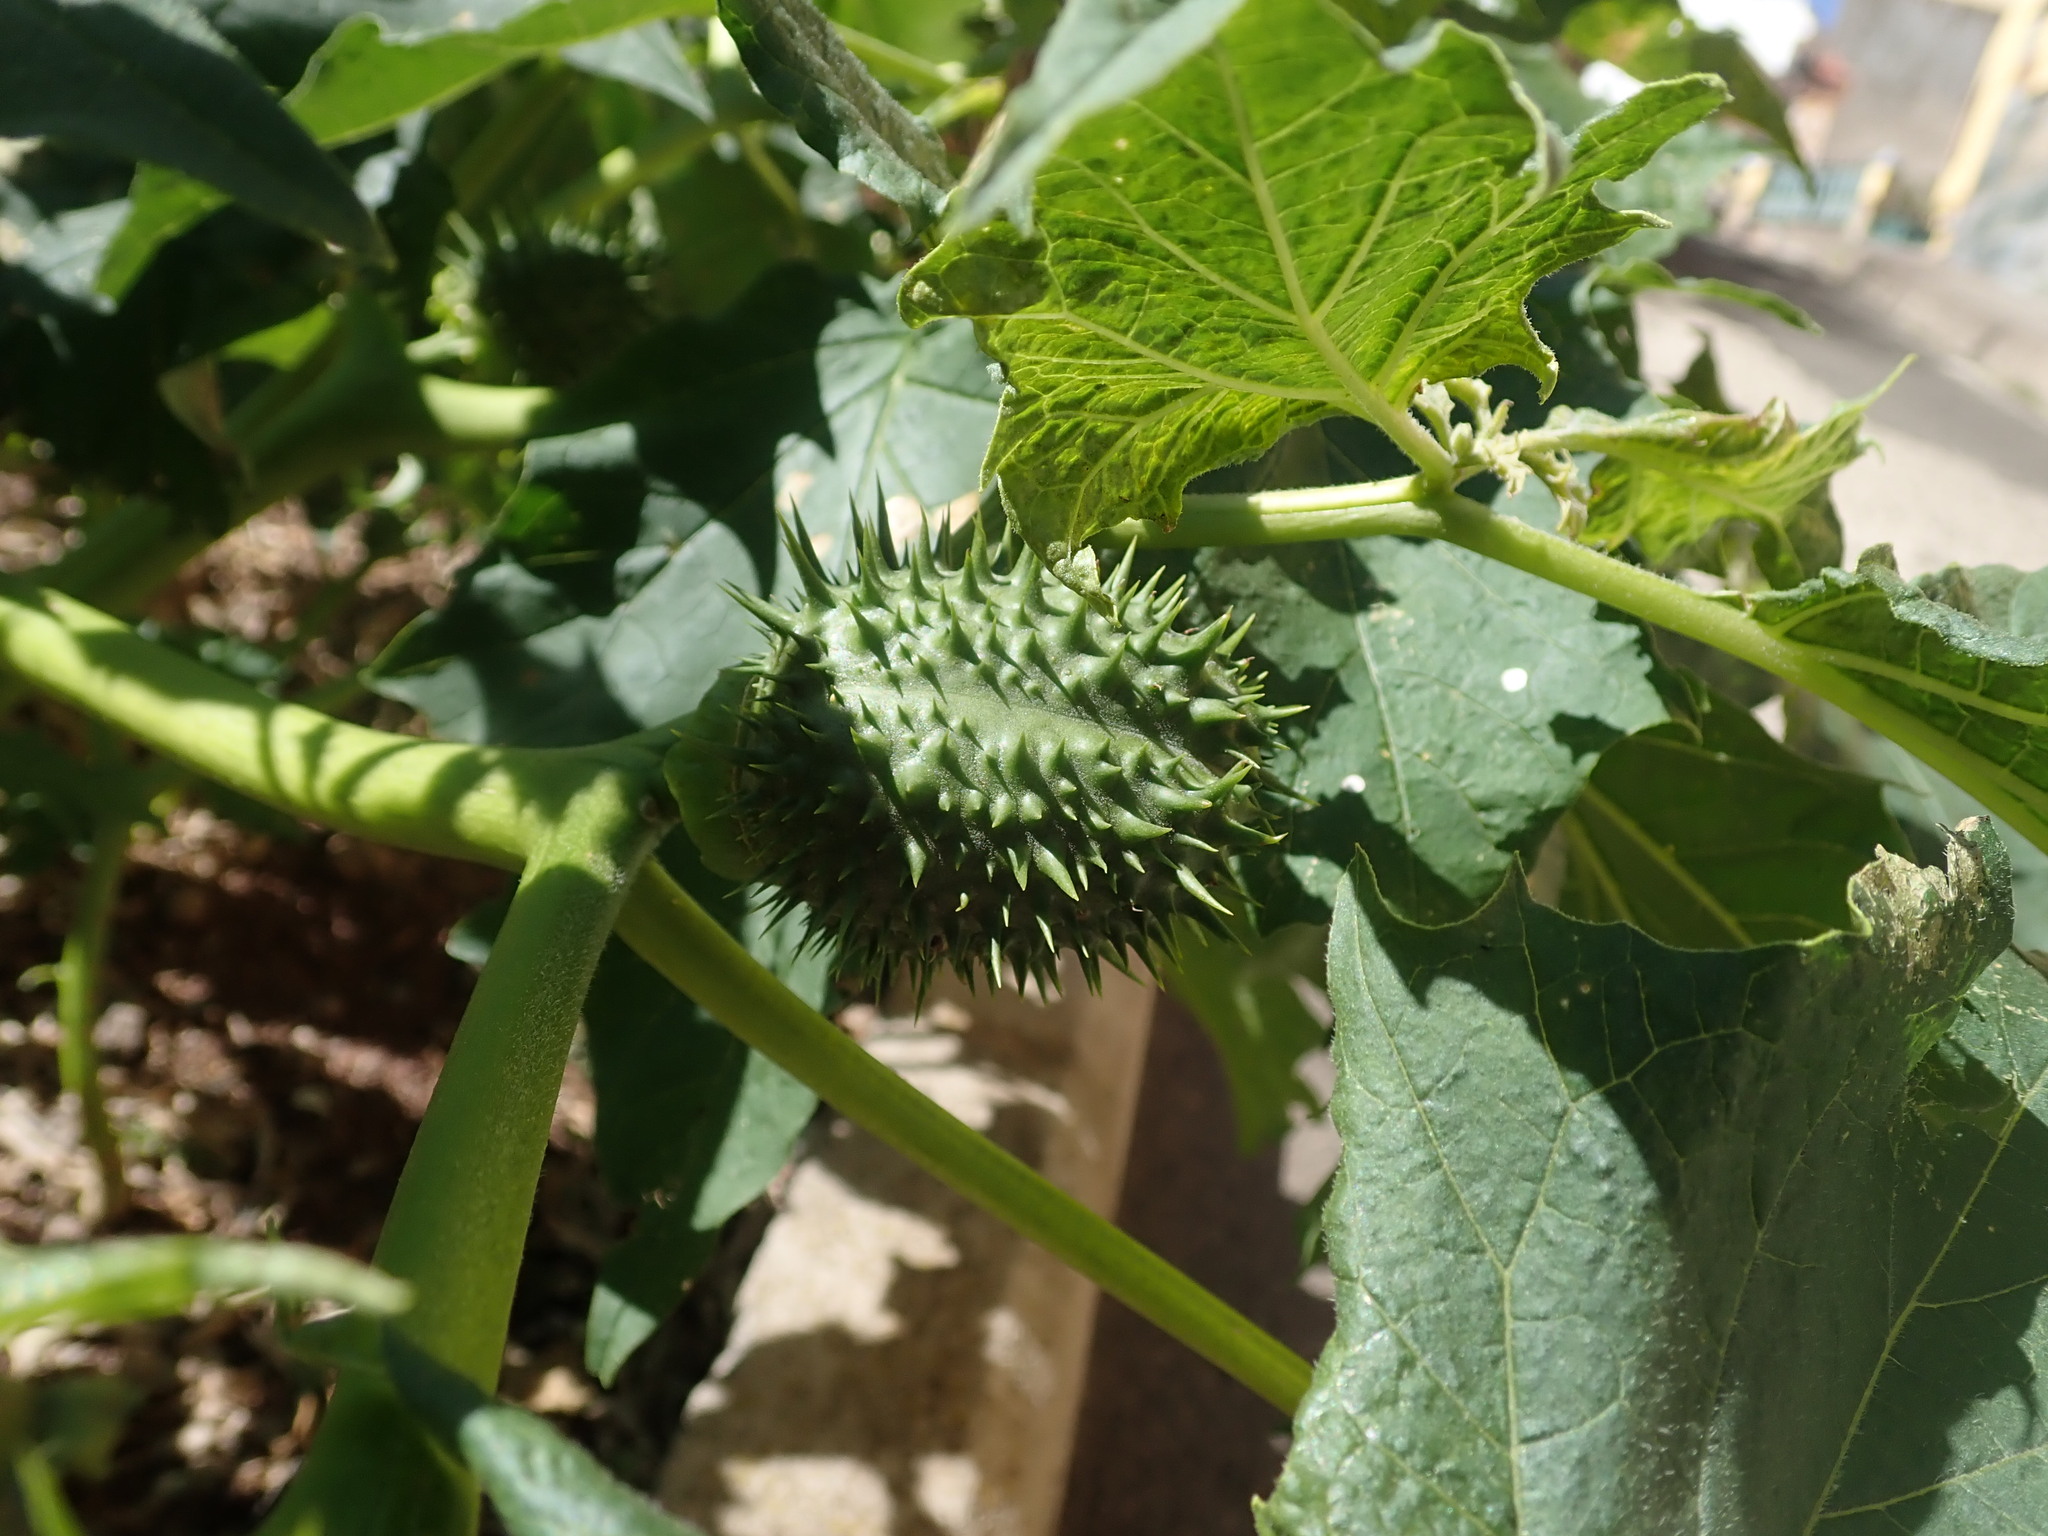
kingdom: Plantae
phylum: Tracheophyta
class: Magnoliopsida
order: Solanales
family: Solanaceae
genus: Datura
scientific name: Datura stramonium
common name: Thorn-apple
